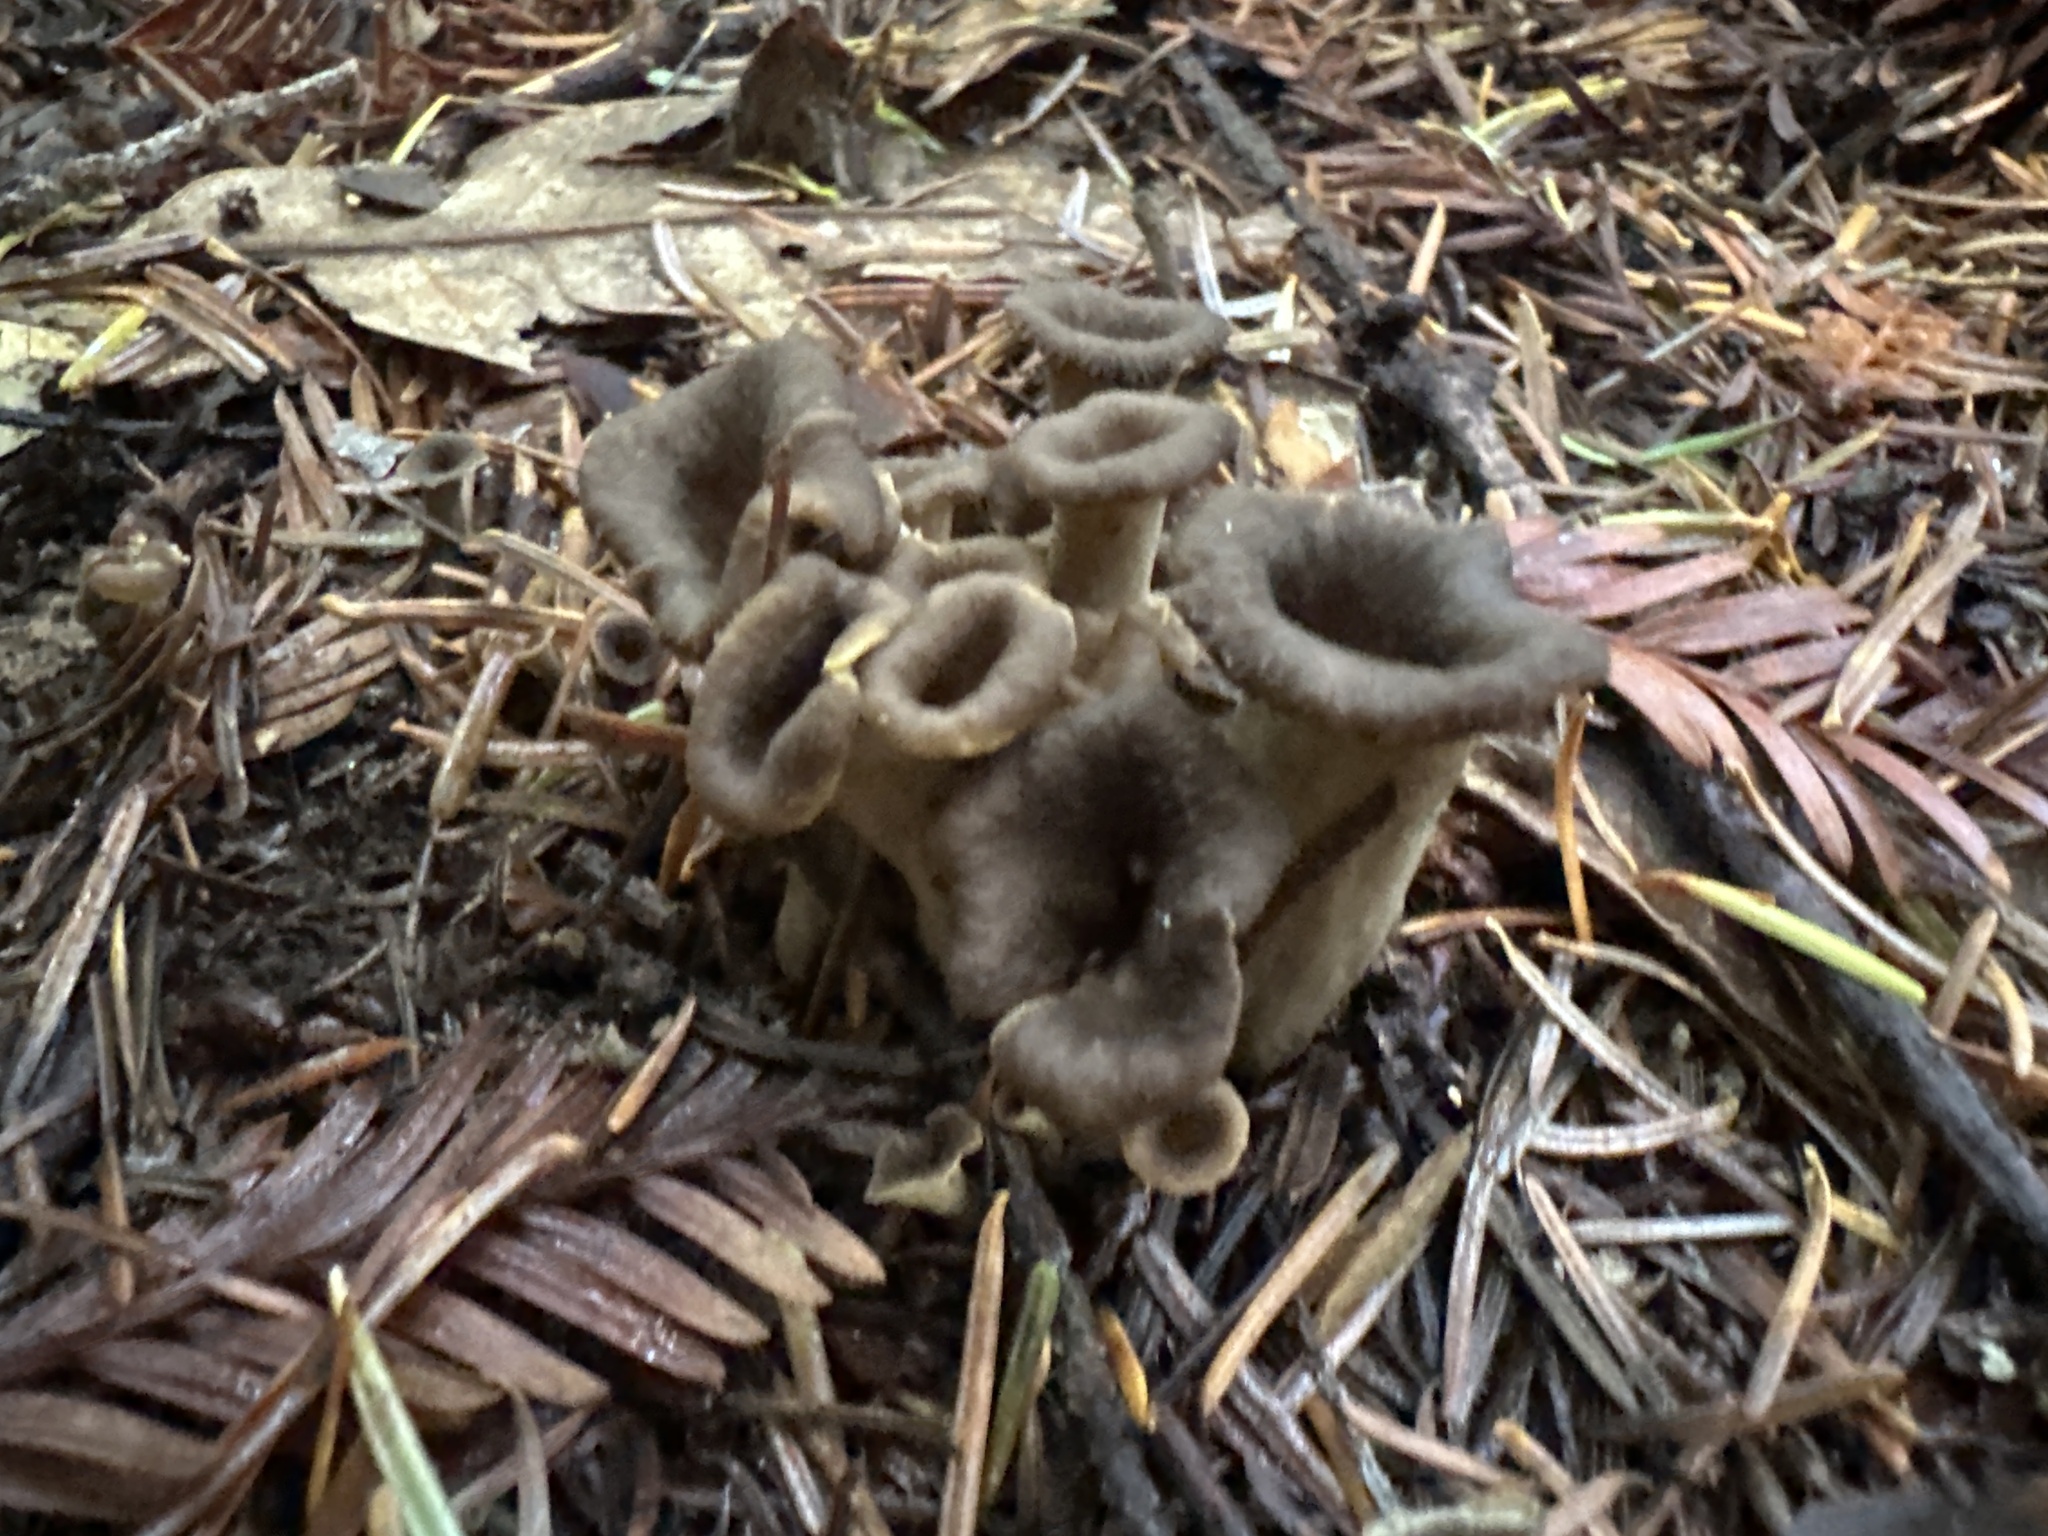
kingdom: Fungi
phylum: Basidiomycota
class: Agaricomycetes
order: Cantharellales
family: Hydnaceae
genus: Craterellus
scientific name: Craterellus calicornucopioides
